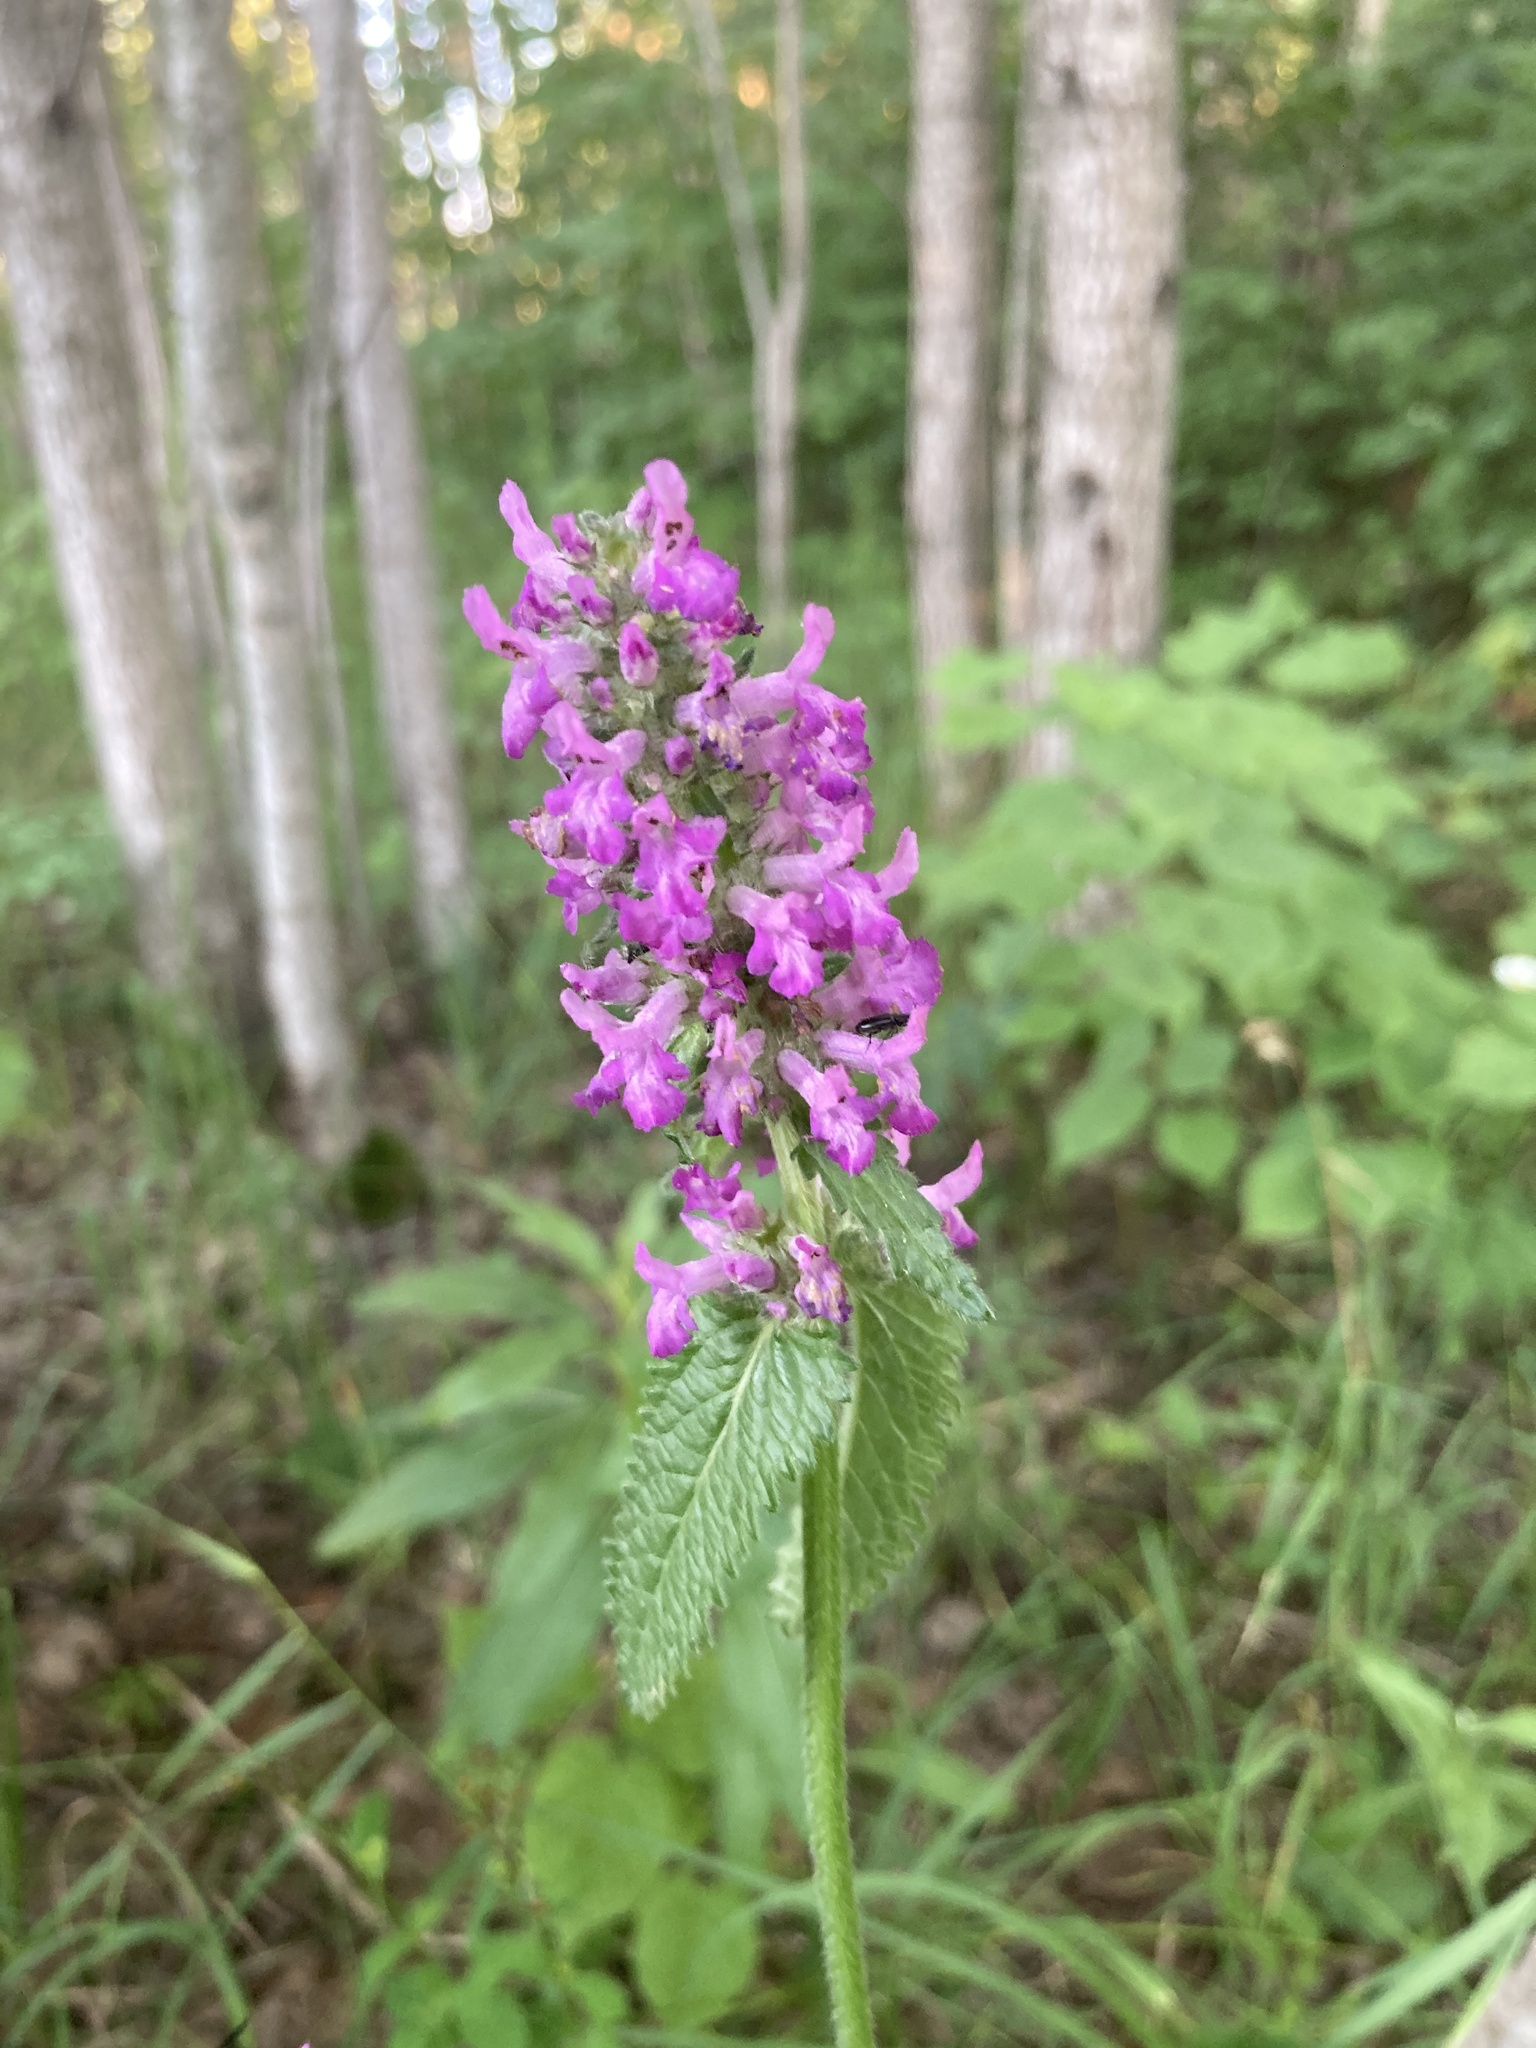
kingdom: Plantae
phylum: Tracheophyta
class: Magnoliopsida
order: Lamiales
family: Lamiaceae
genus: Betonica
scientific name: Betonica officinalis
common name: Bishop's-wort
